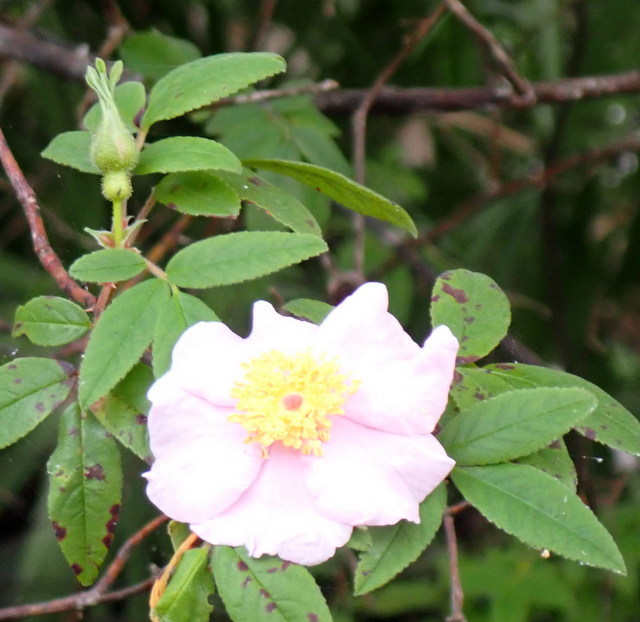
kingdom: Plantae
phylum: Tracheophyta
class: Magnoliopsida
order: Rosales
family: Rosaceae
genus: Rosa
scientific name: Rosa palustris
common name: Swamp rose
